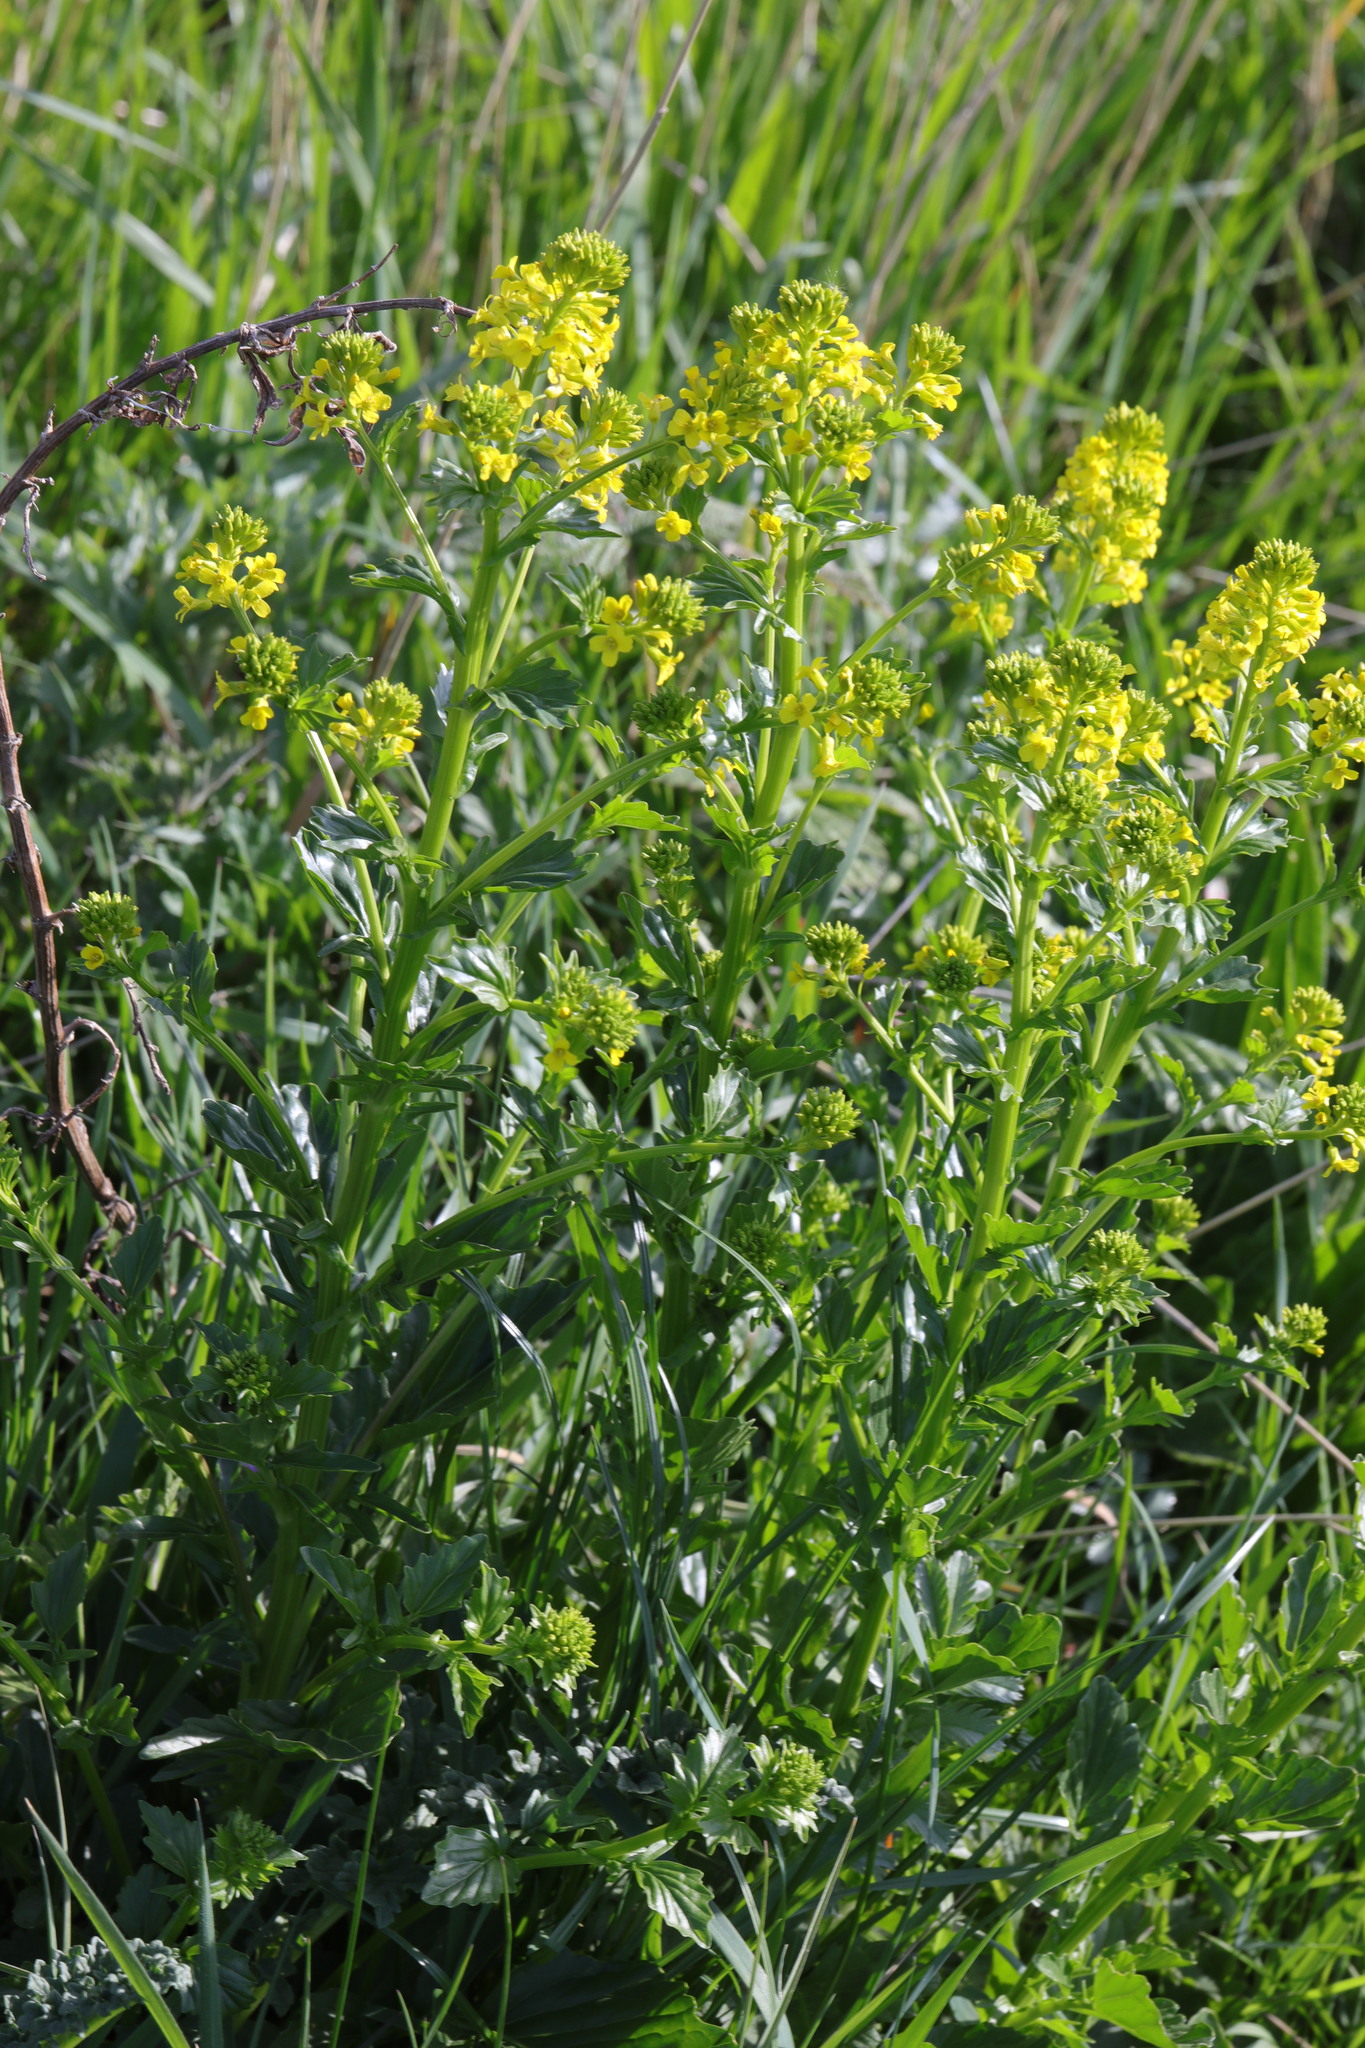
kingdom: Plantae
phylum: Tracheophyta
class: Magnoliopsida
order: Brassicales
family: Brassicaceae
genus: Barbarea
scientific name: Barbarea vulgaris
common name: Cressy-greens
